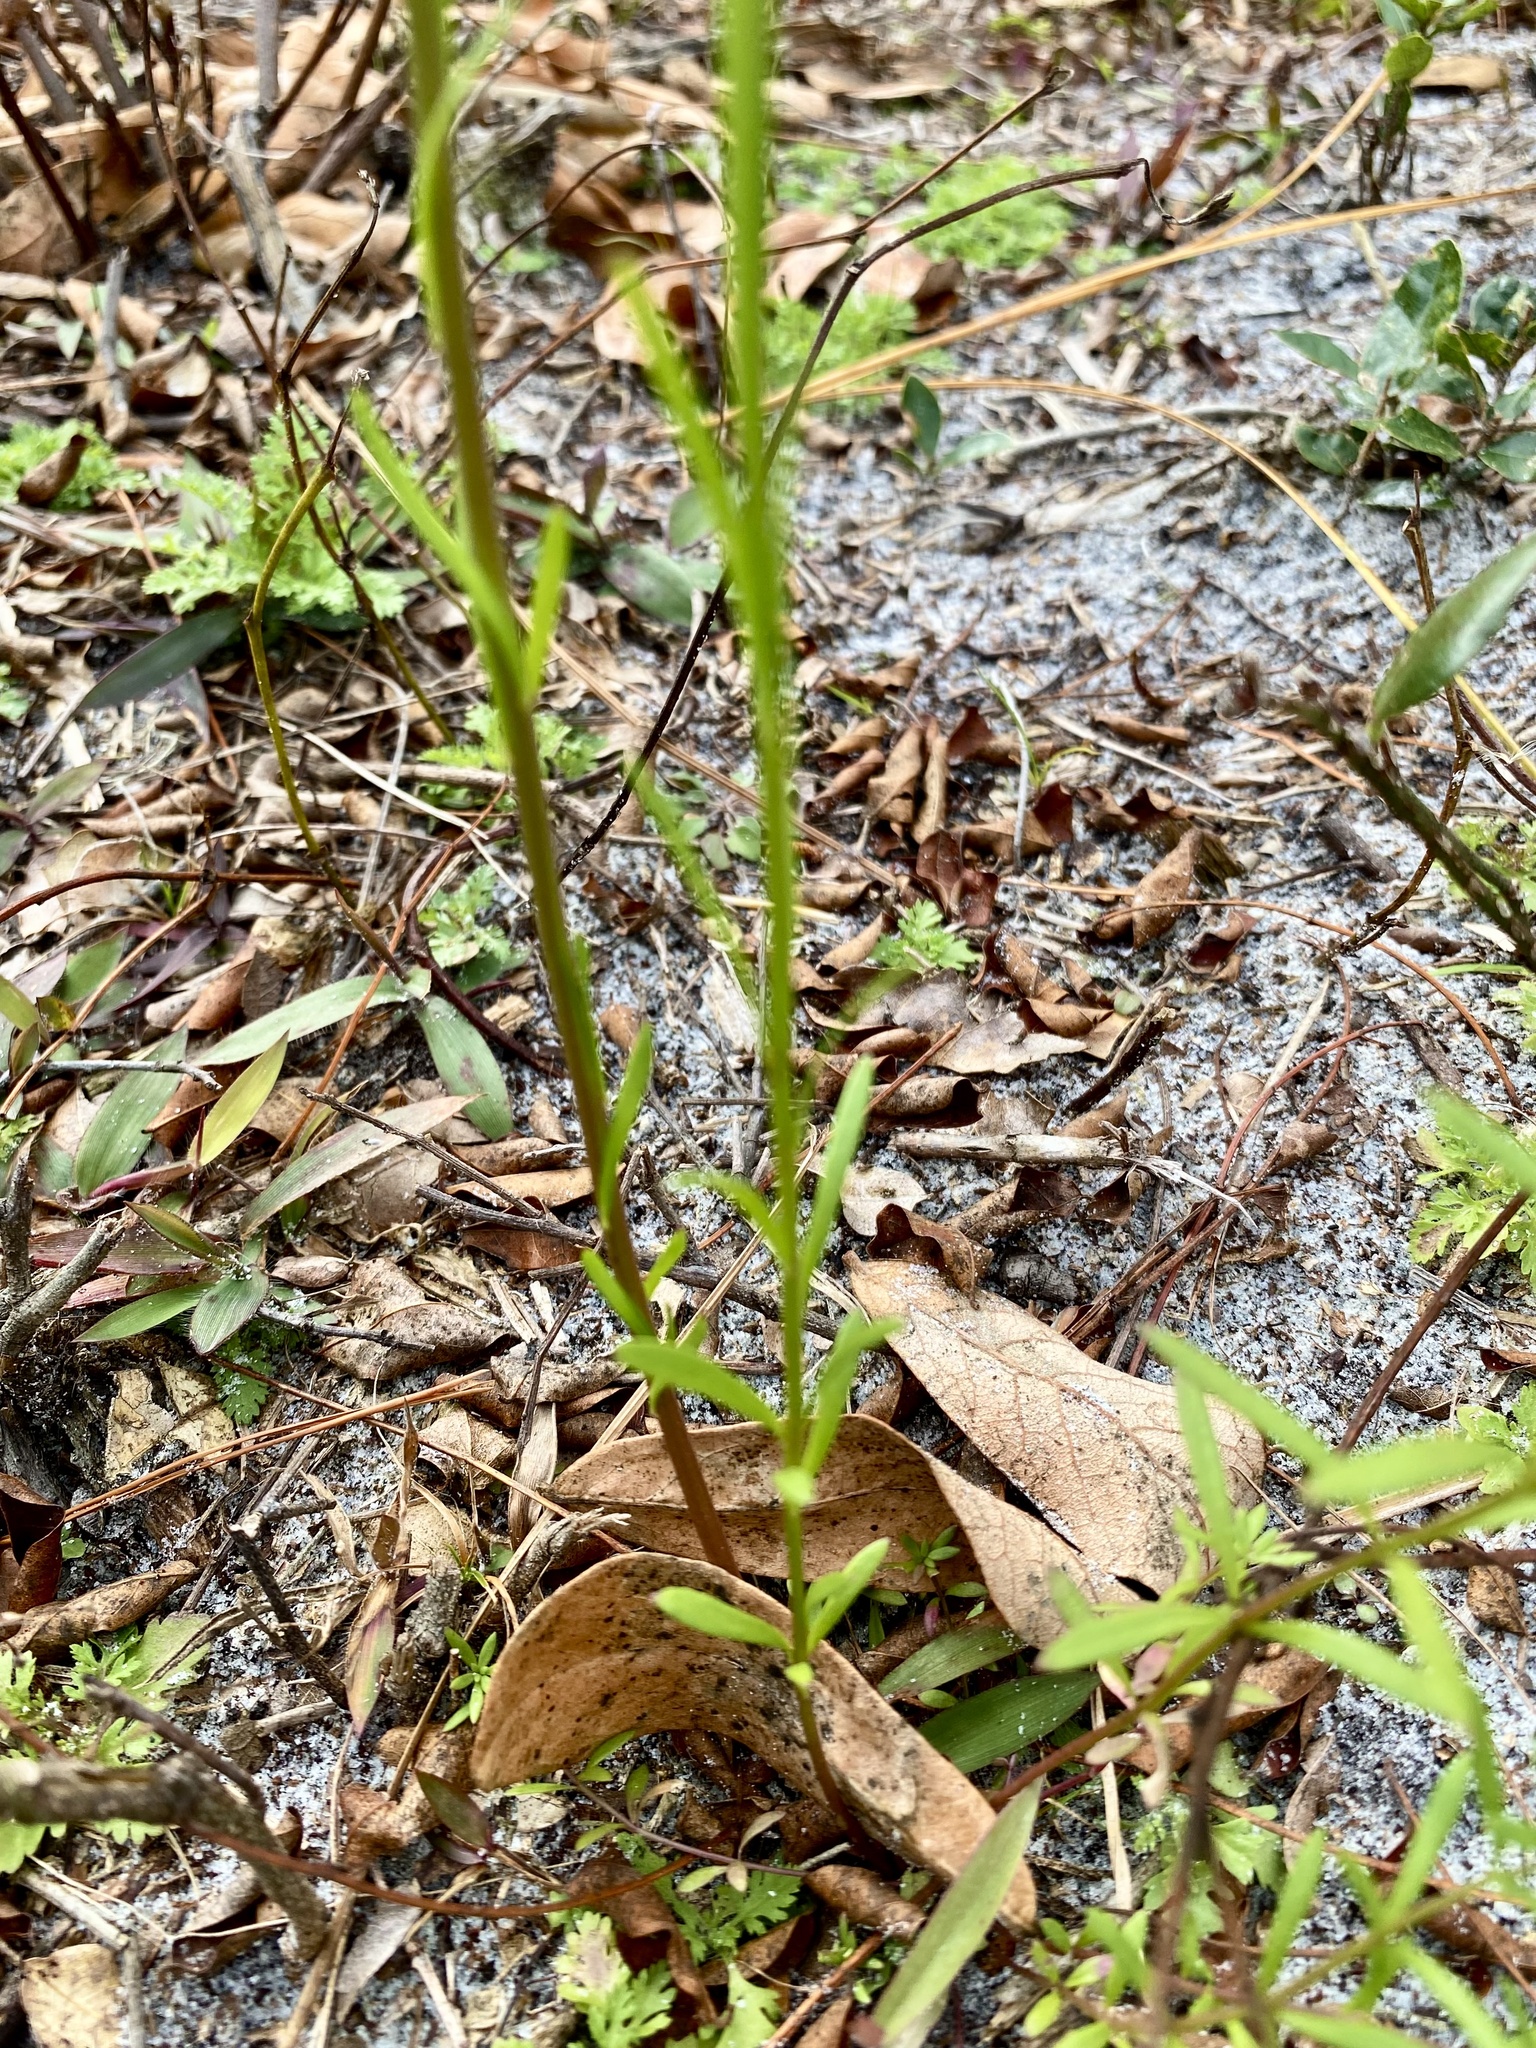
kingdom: Plantae
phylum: Tracheophyta
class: Magnoliopsida
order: Lamiales
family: Plantaginaceae
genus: Nuttallanthus
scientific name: Nuttallanthus canadensis
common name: Blue toadflax
